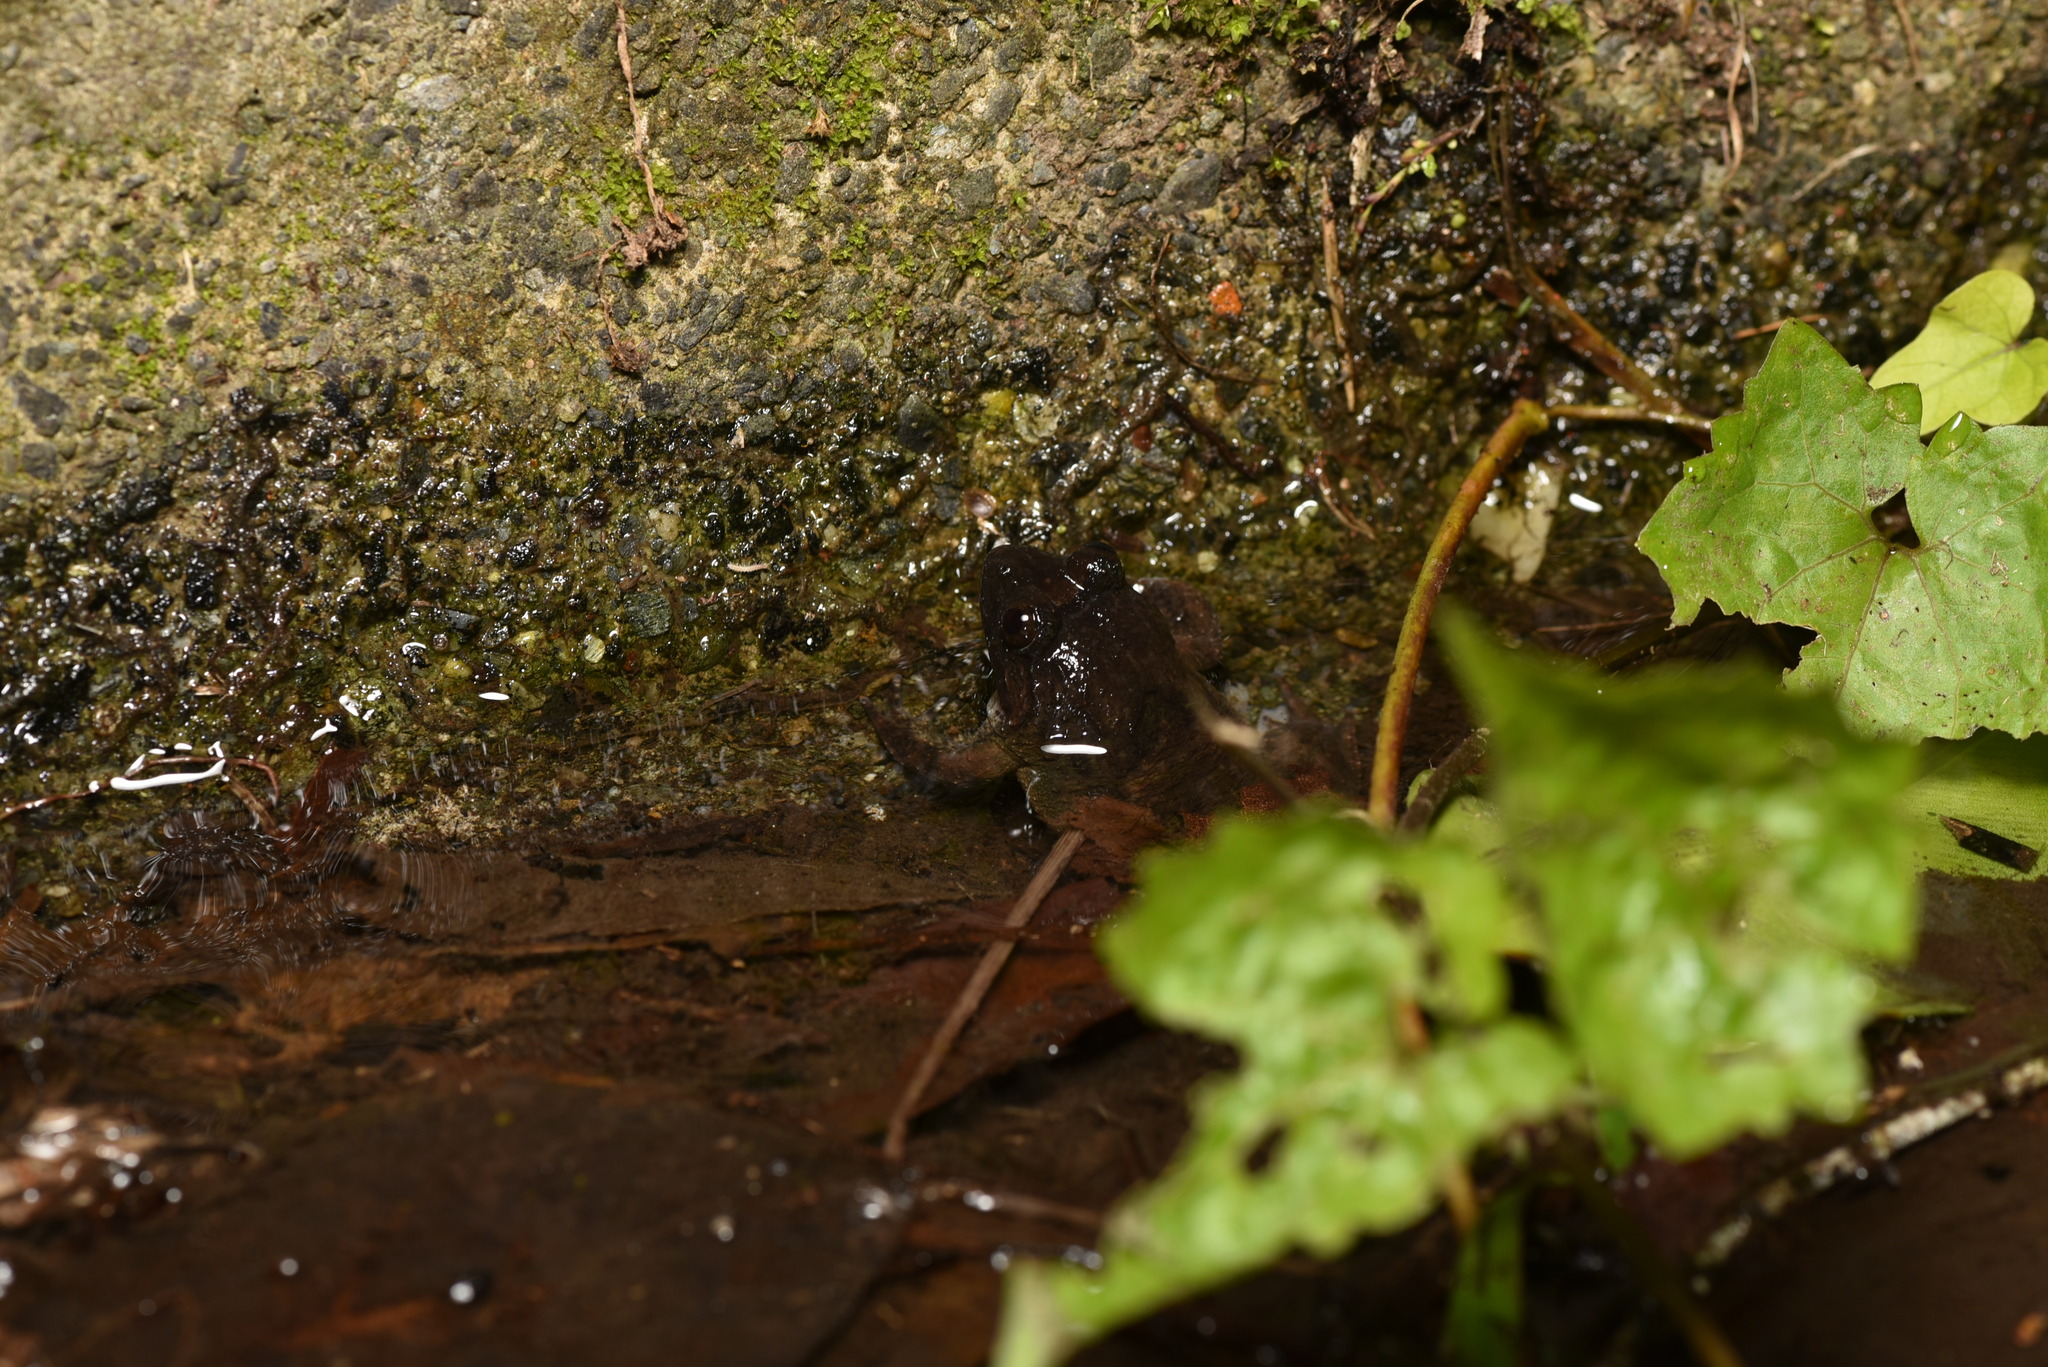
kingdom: Animalia
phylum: Chordata
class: Amphibia
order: Anura
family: Dicroglossidae
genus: Limnonectes
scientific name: Limnonectes fujianensis
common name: Fujian large-headed frog
